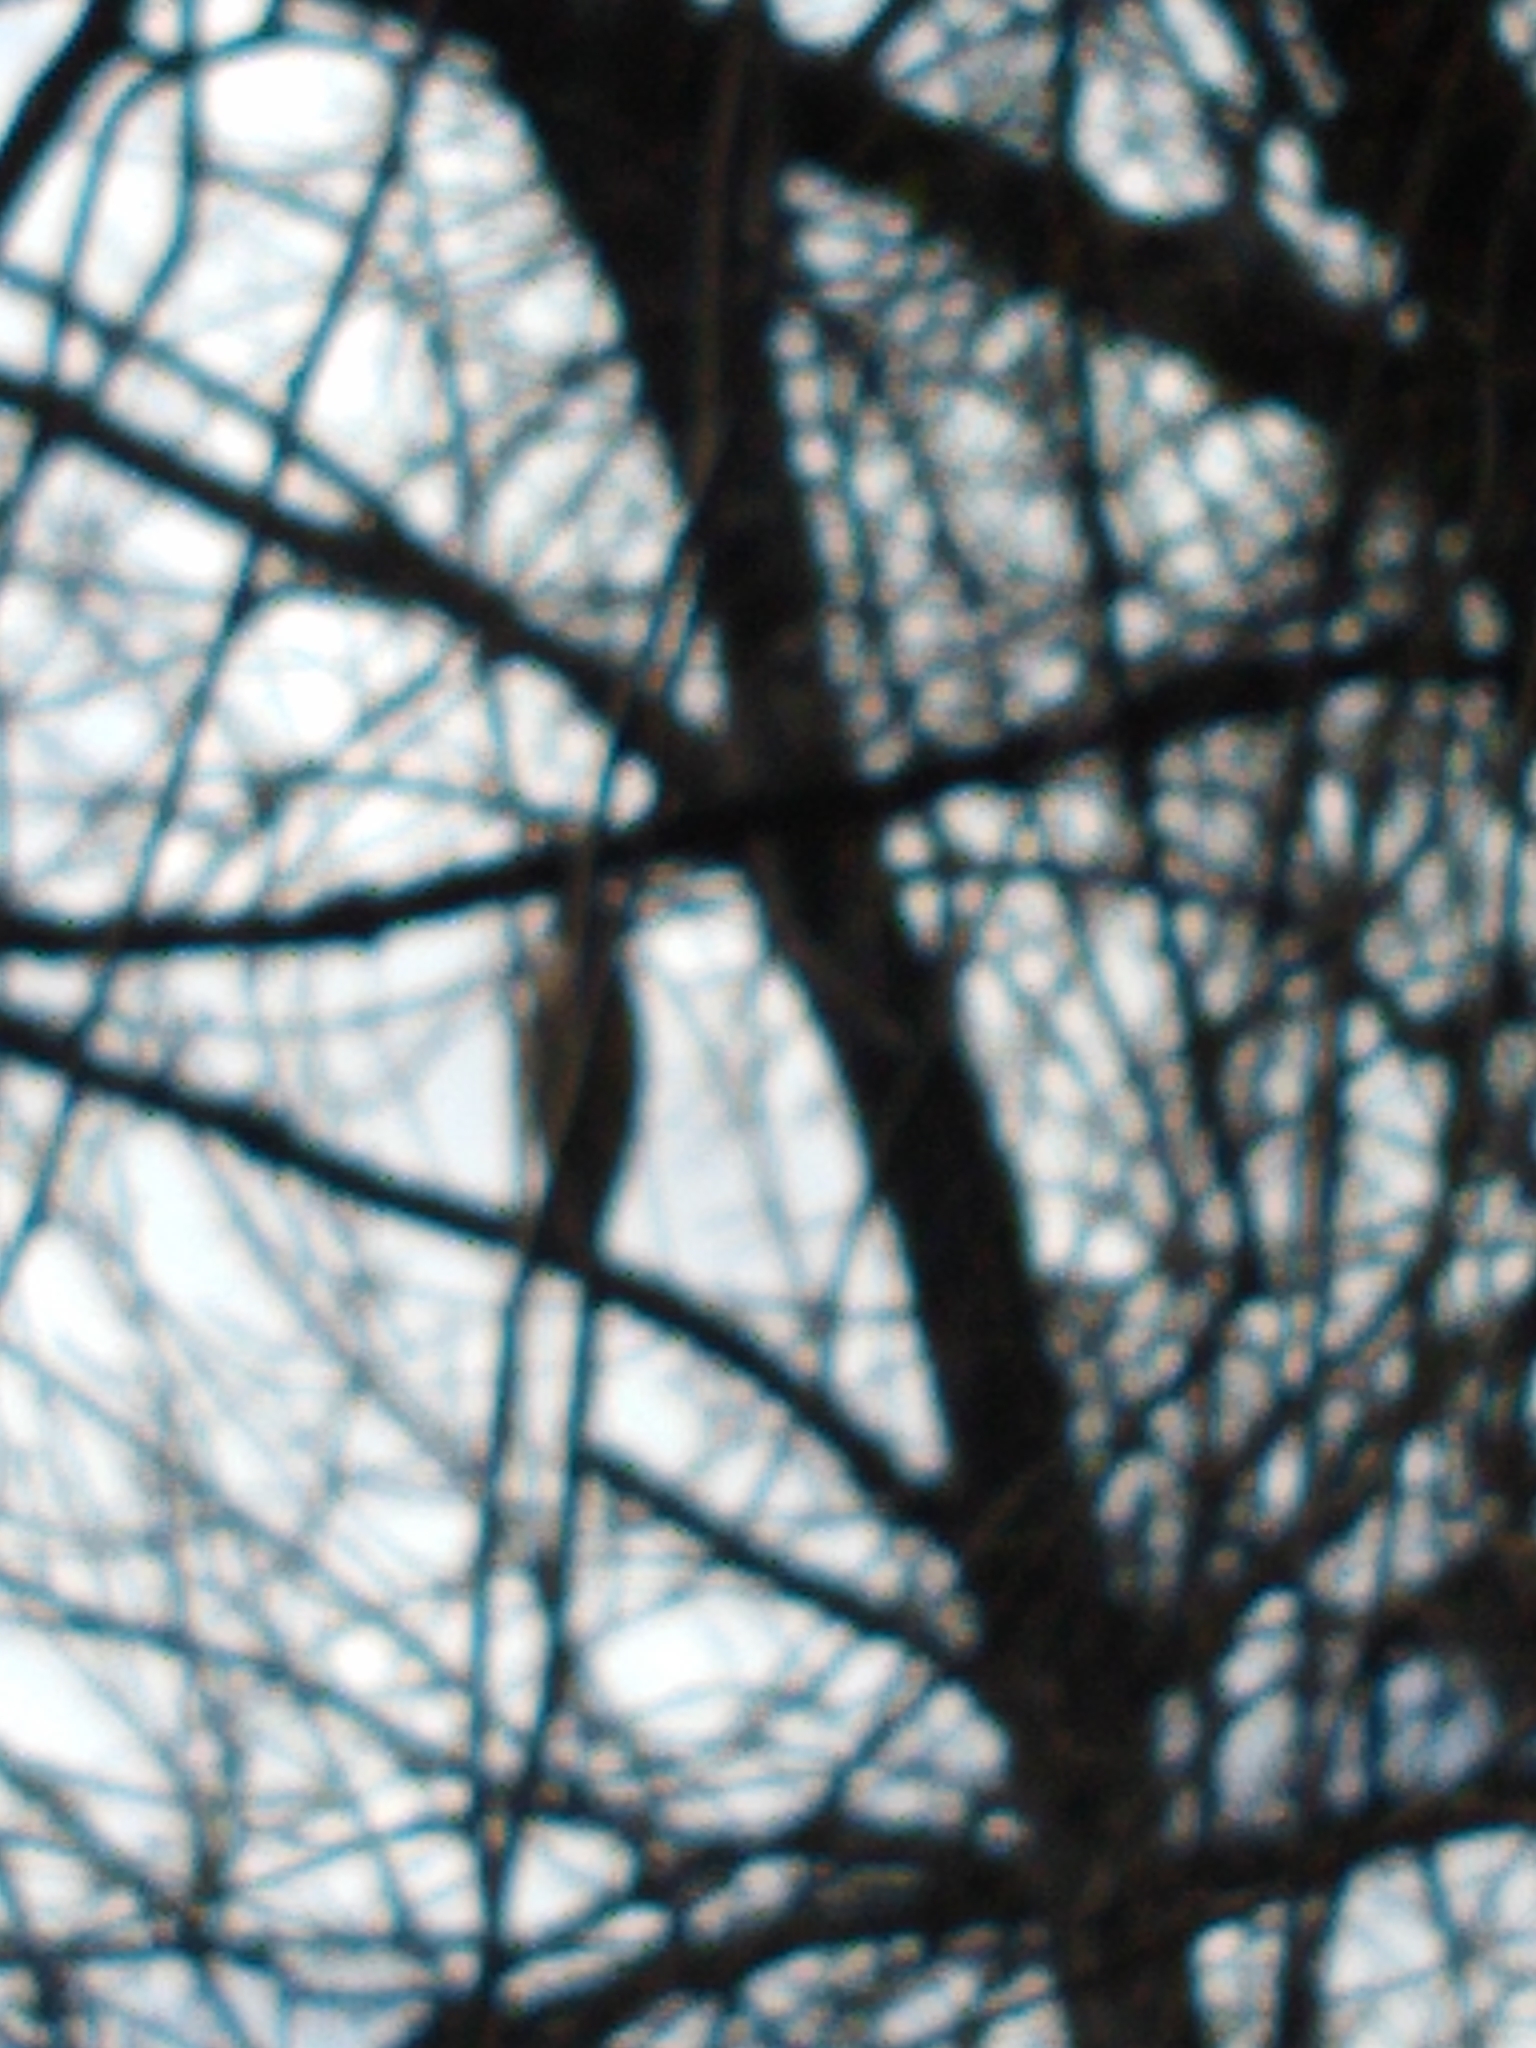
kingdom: Animalia
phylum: Chordata
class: Aves
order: Pelecaniformes
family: Ardeidae
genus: Nycticorax
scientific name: Nycticorax nycticorax
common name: Black-crowned night heron
